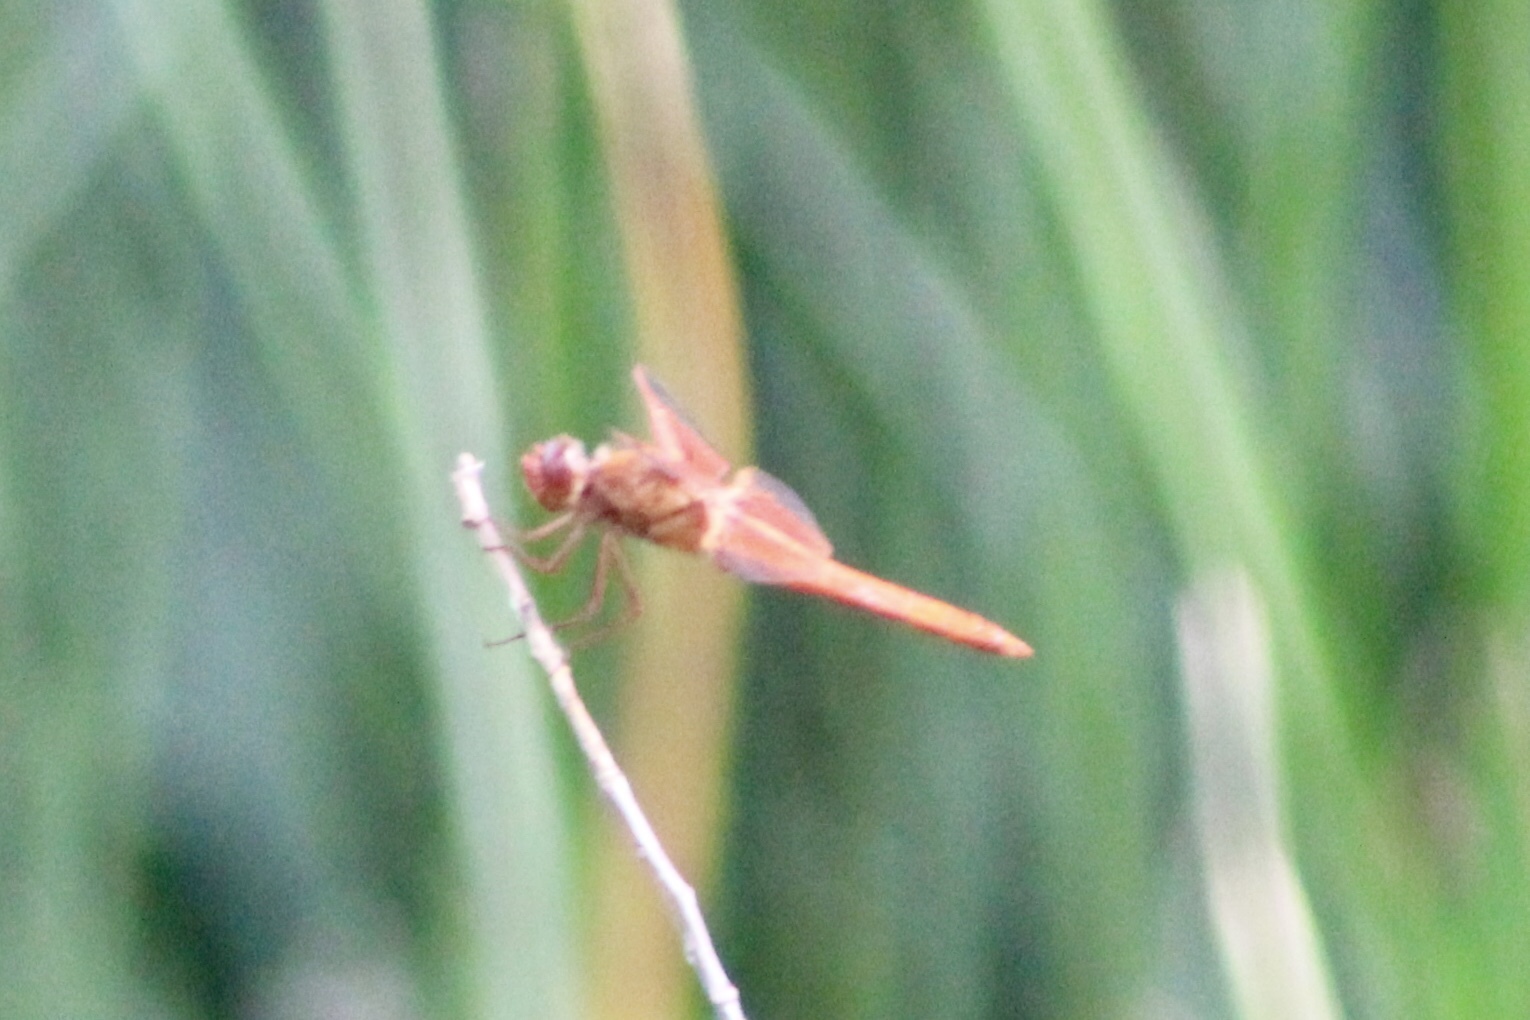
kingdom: Animalia
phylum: Arthropoda
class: Insecta
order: Odonata
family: Libellulidae
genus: Libellula
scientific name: Libellula saturata
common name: Flame skimmer
